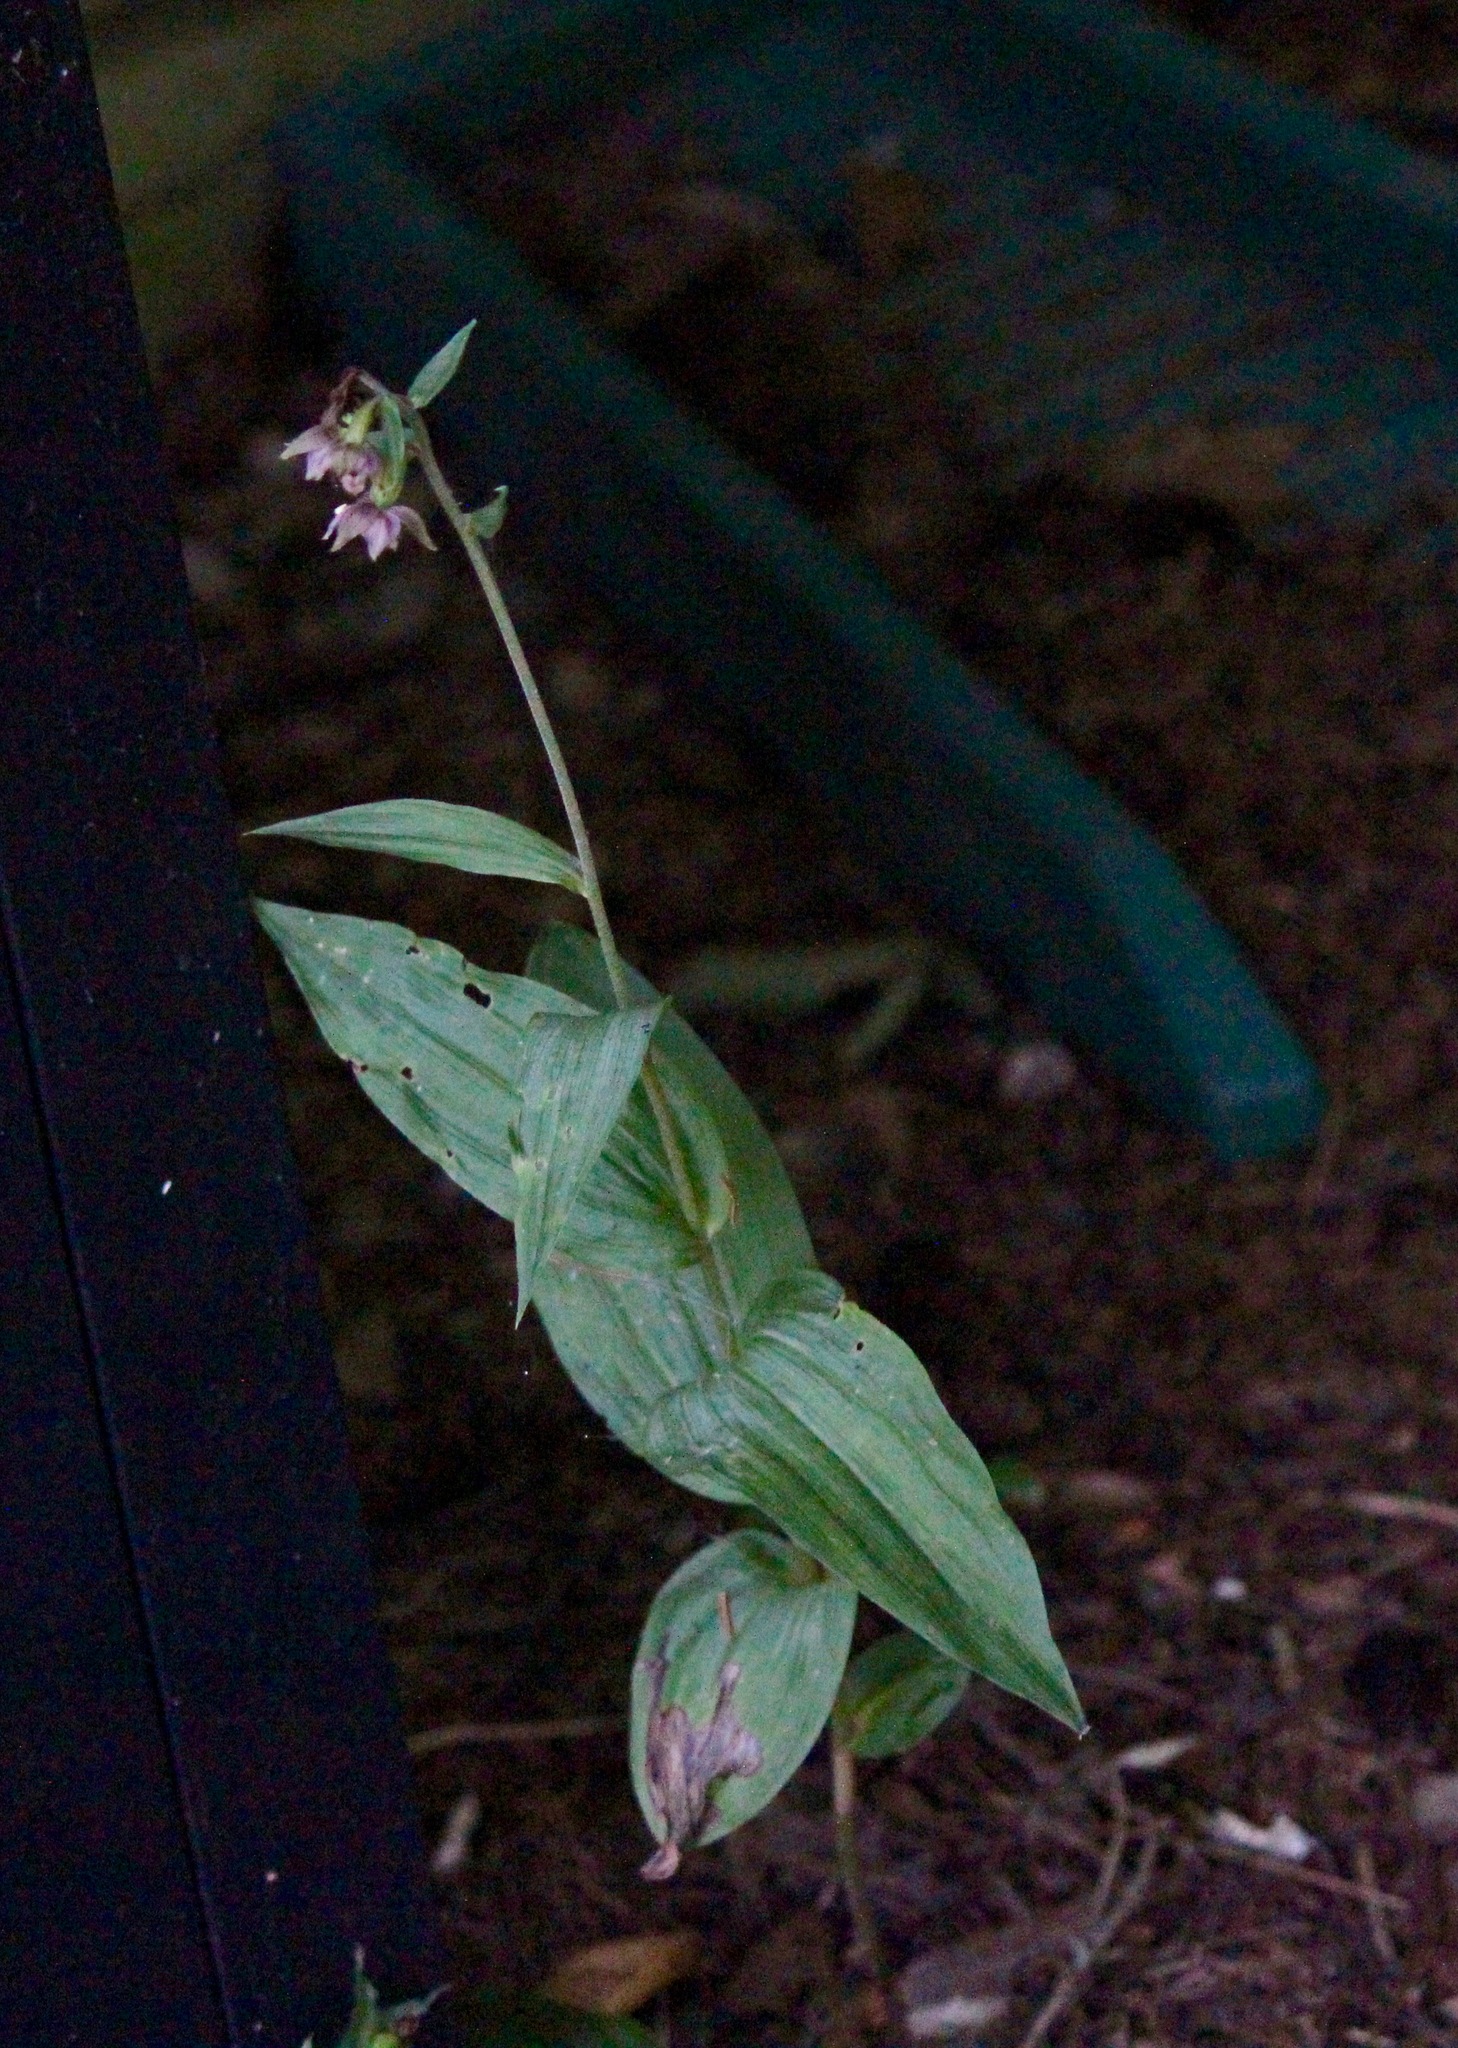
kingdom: Plantae
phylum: Tracheophyta
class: Liliopsida
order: Asparagales
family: Orchidaceae
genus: Epipactis
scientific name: Epipactis helleborine
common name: Broad-leaved helleborine
